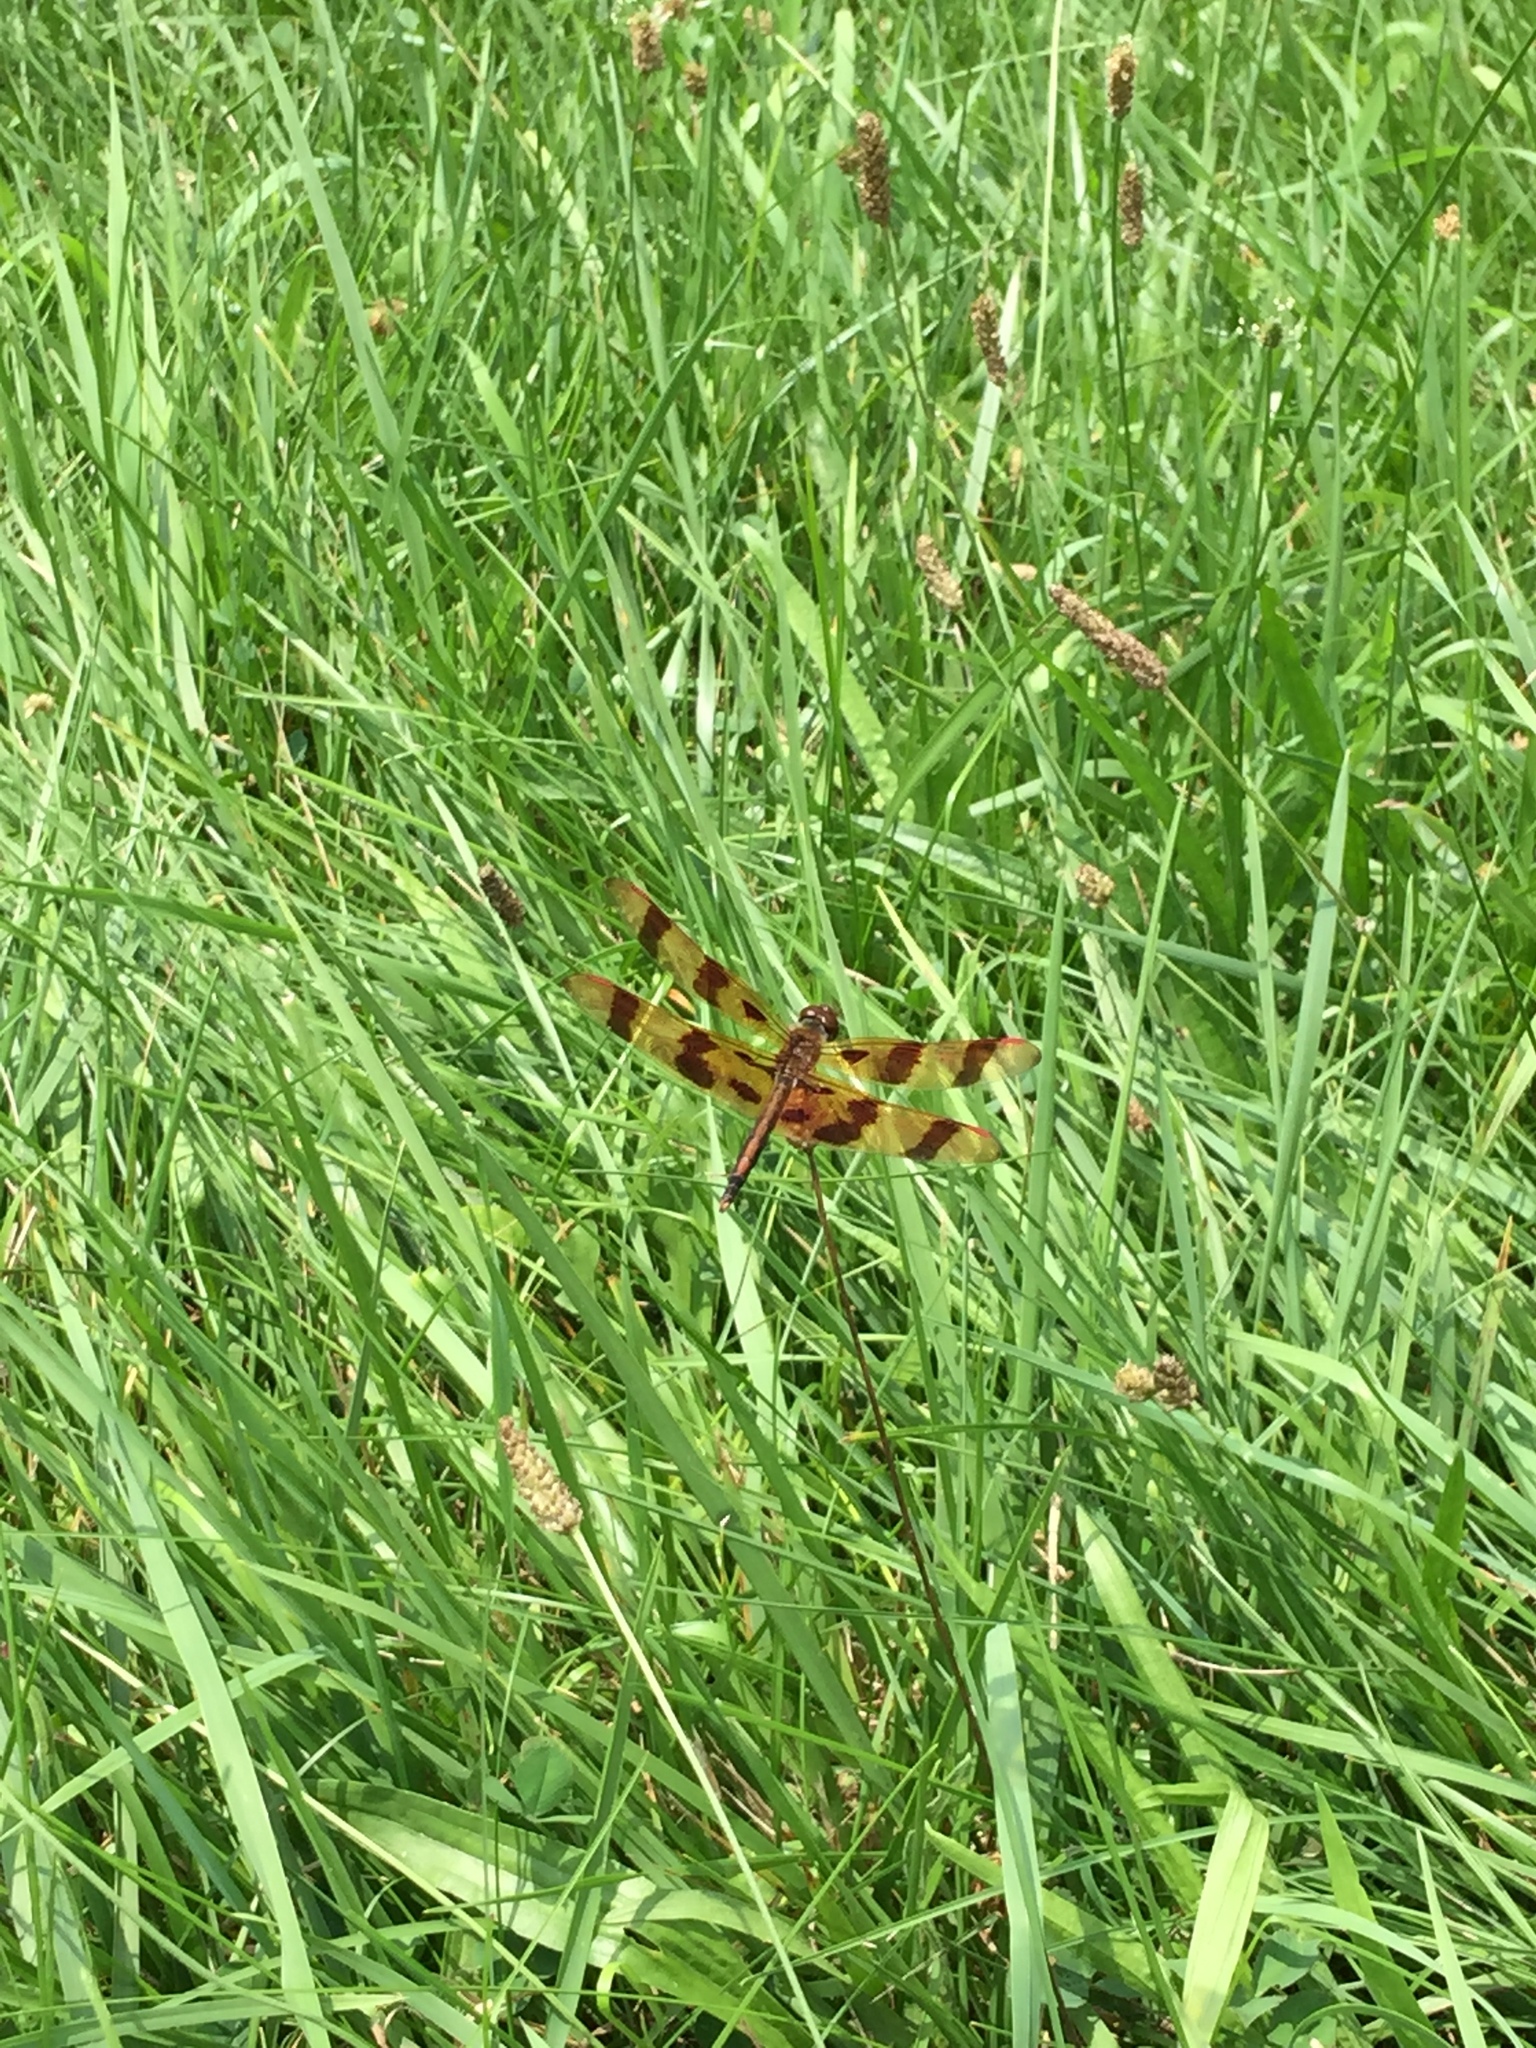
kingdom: Animalia
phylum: Arthropoda
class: Insecta
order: Odonata
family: Libellulidae
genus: Celithemis
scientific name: Celithemis eponina
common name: Halloween pennant
